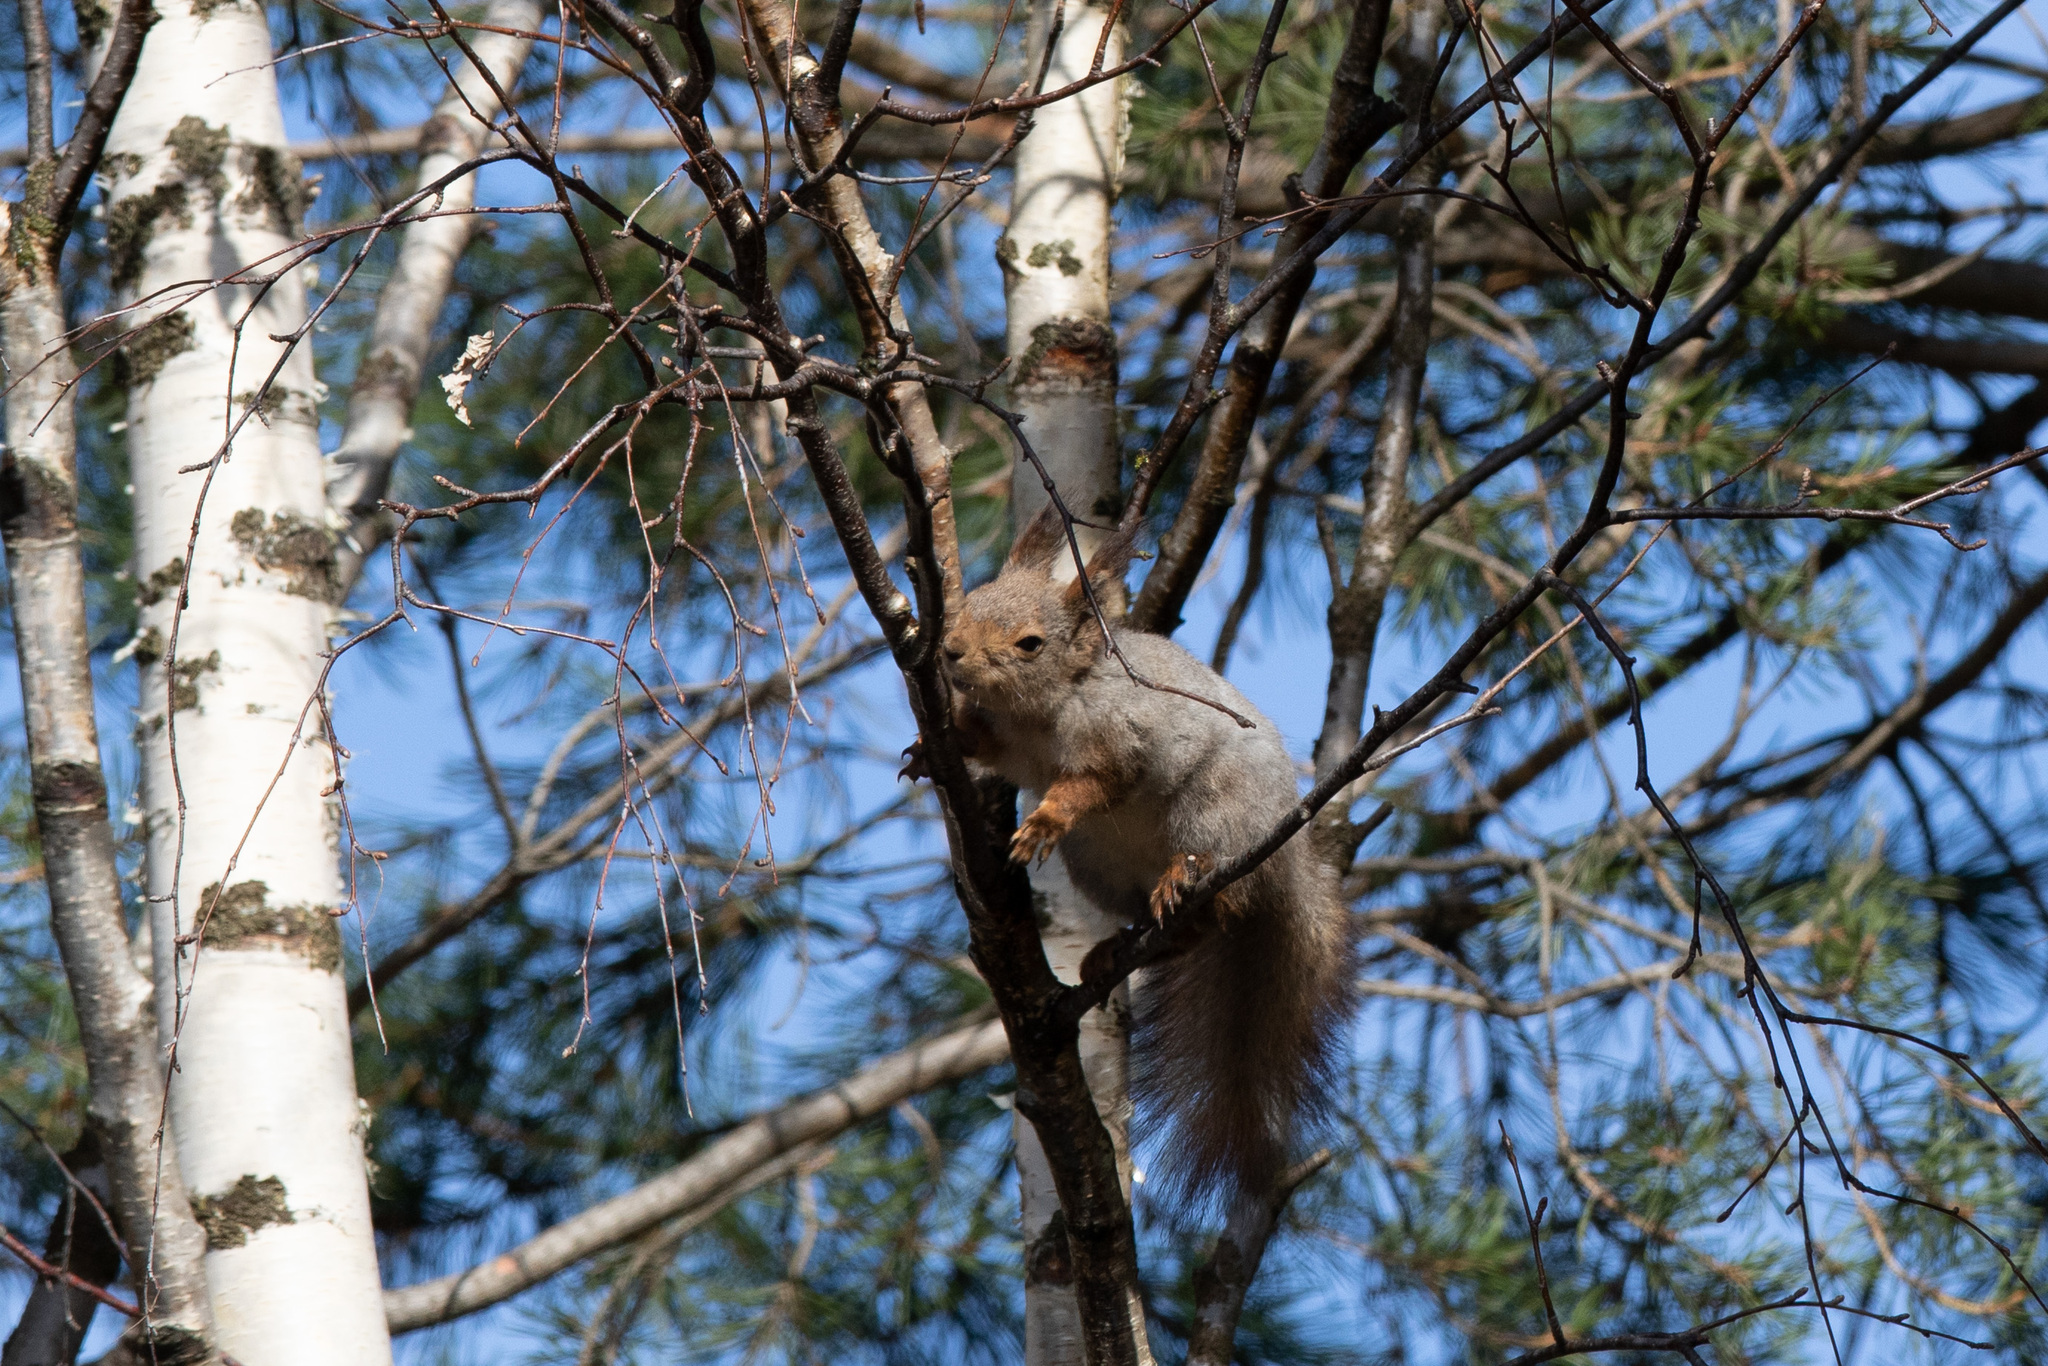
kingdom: Animalia
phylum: Chordata
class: Mammalia
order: Rodentia
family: Sciuridae
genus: Sciurus
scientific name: Sciurus vulgaris
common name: Eurasian red squirrel
